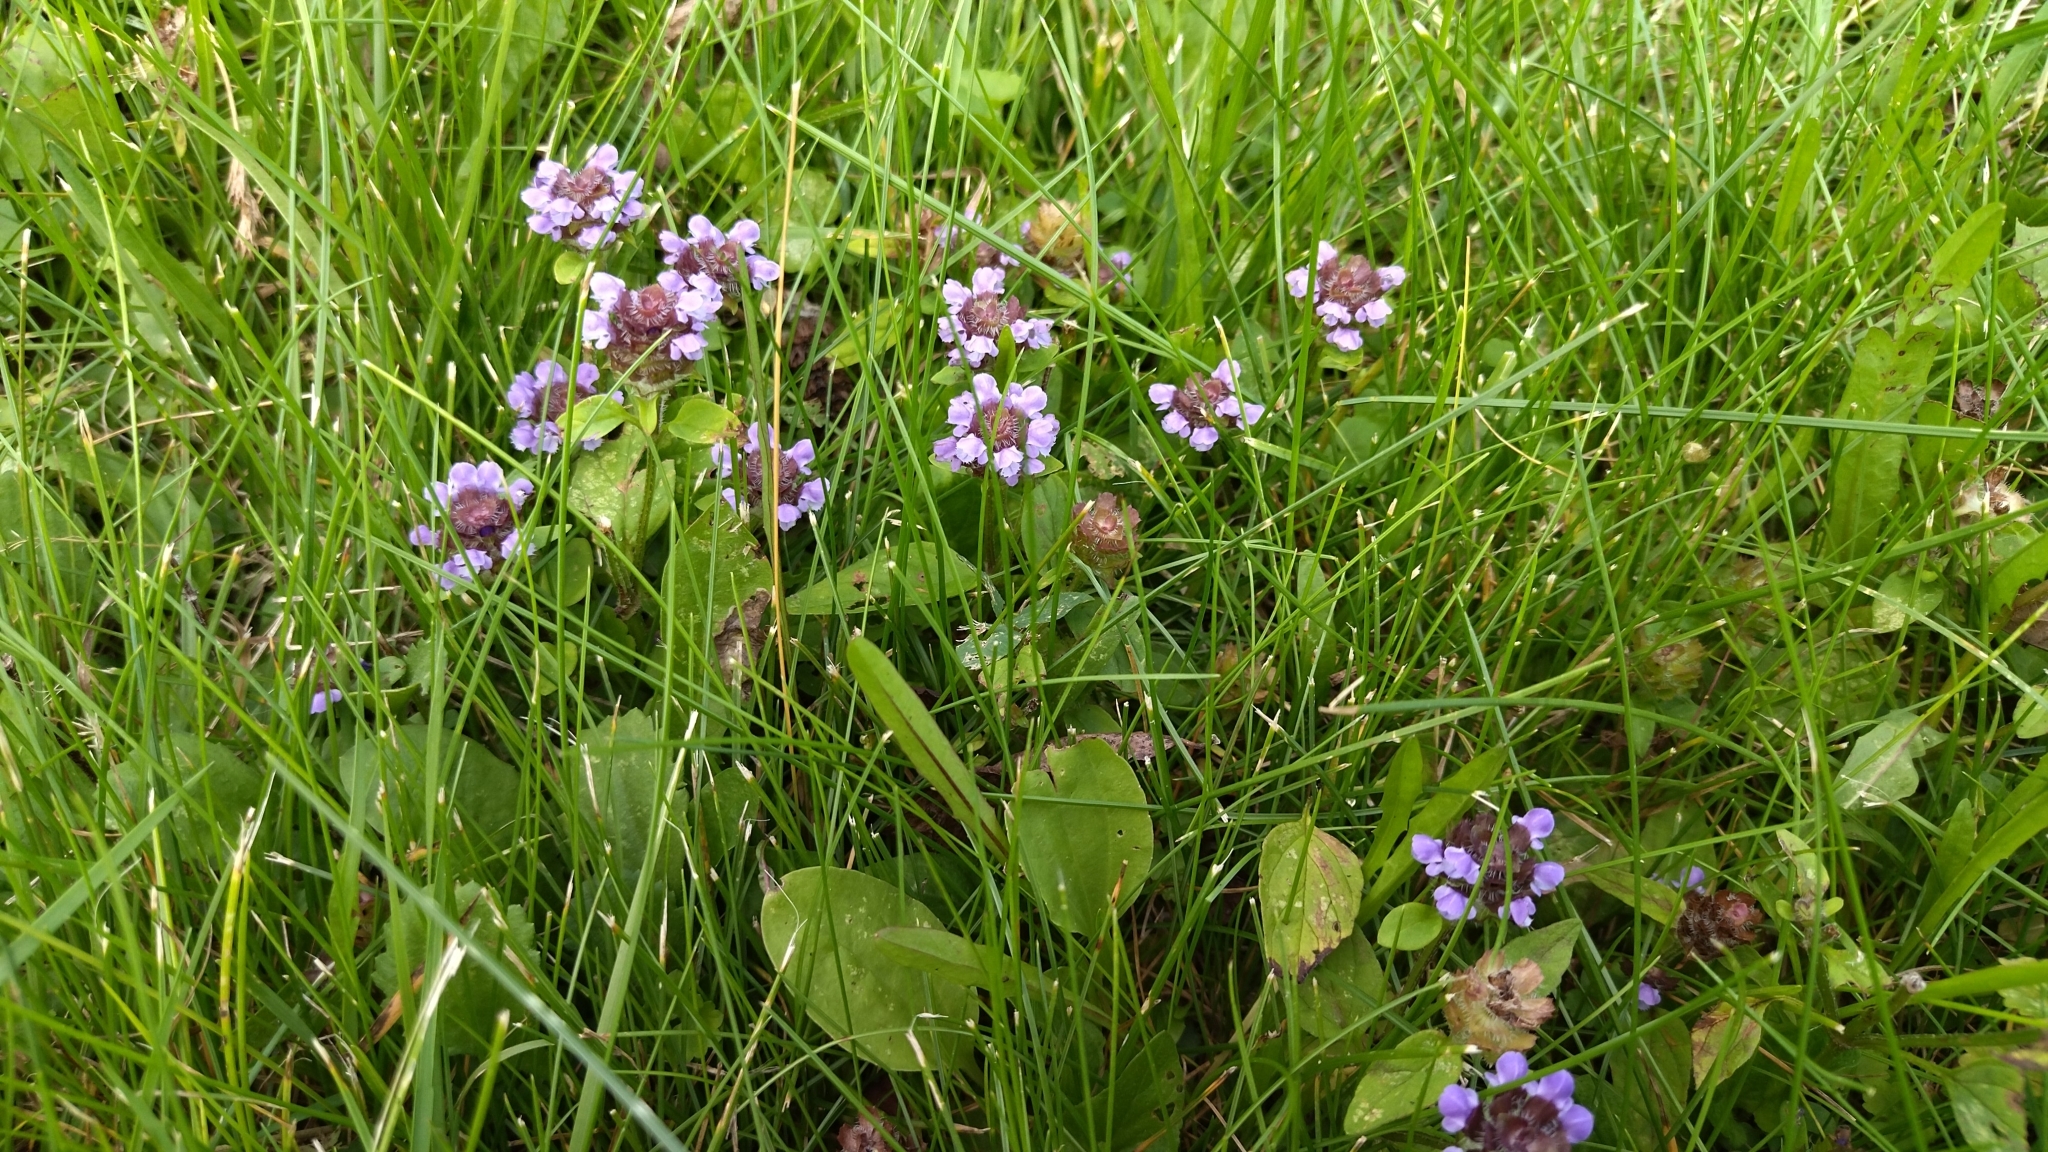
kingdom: Plantae
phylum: Tracheophyta
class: Magnoliopsida
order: Lamiales
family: Lamiaceae
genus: Prunella
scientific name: Prunella vulgaris
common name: Heal-all
